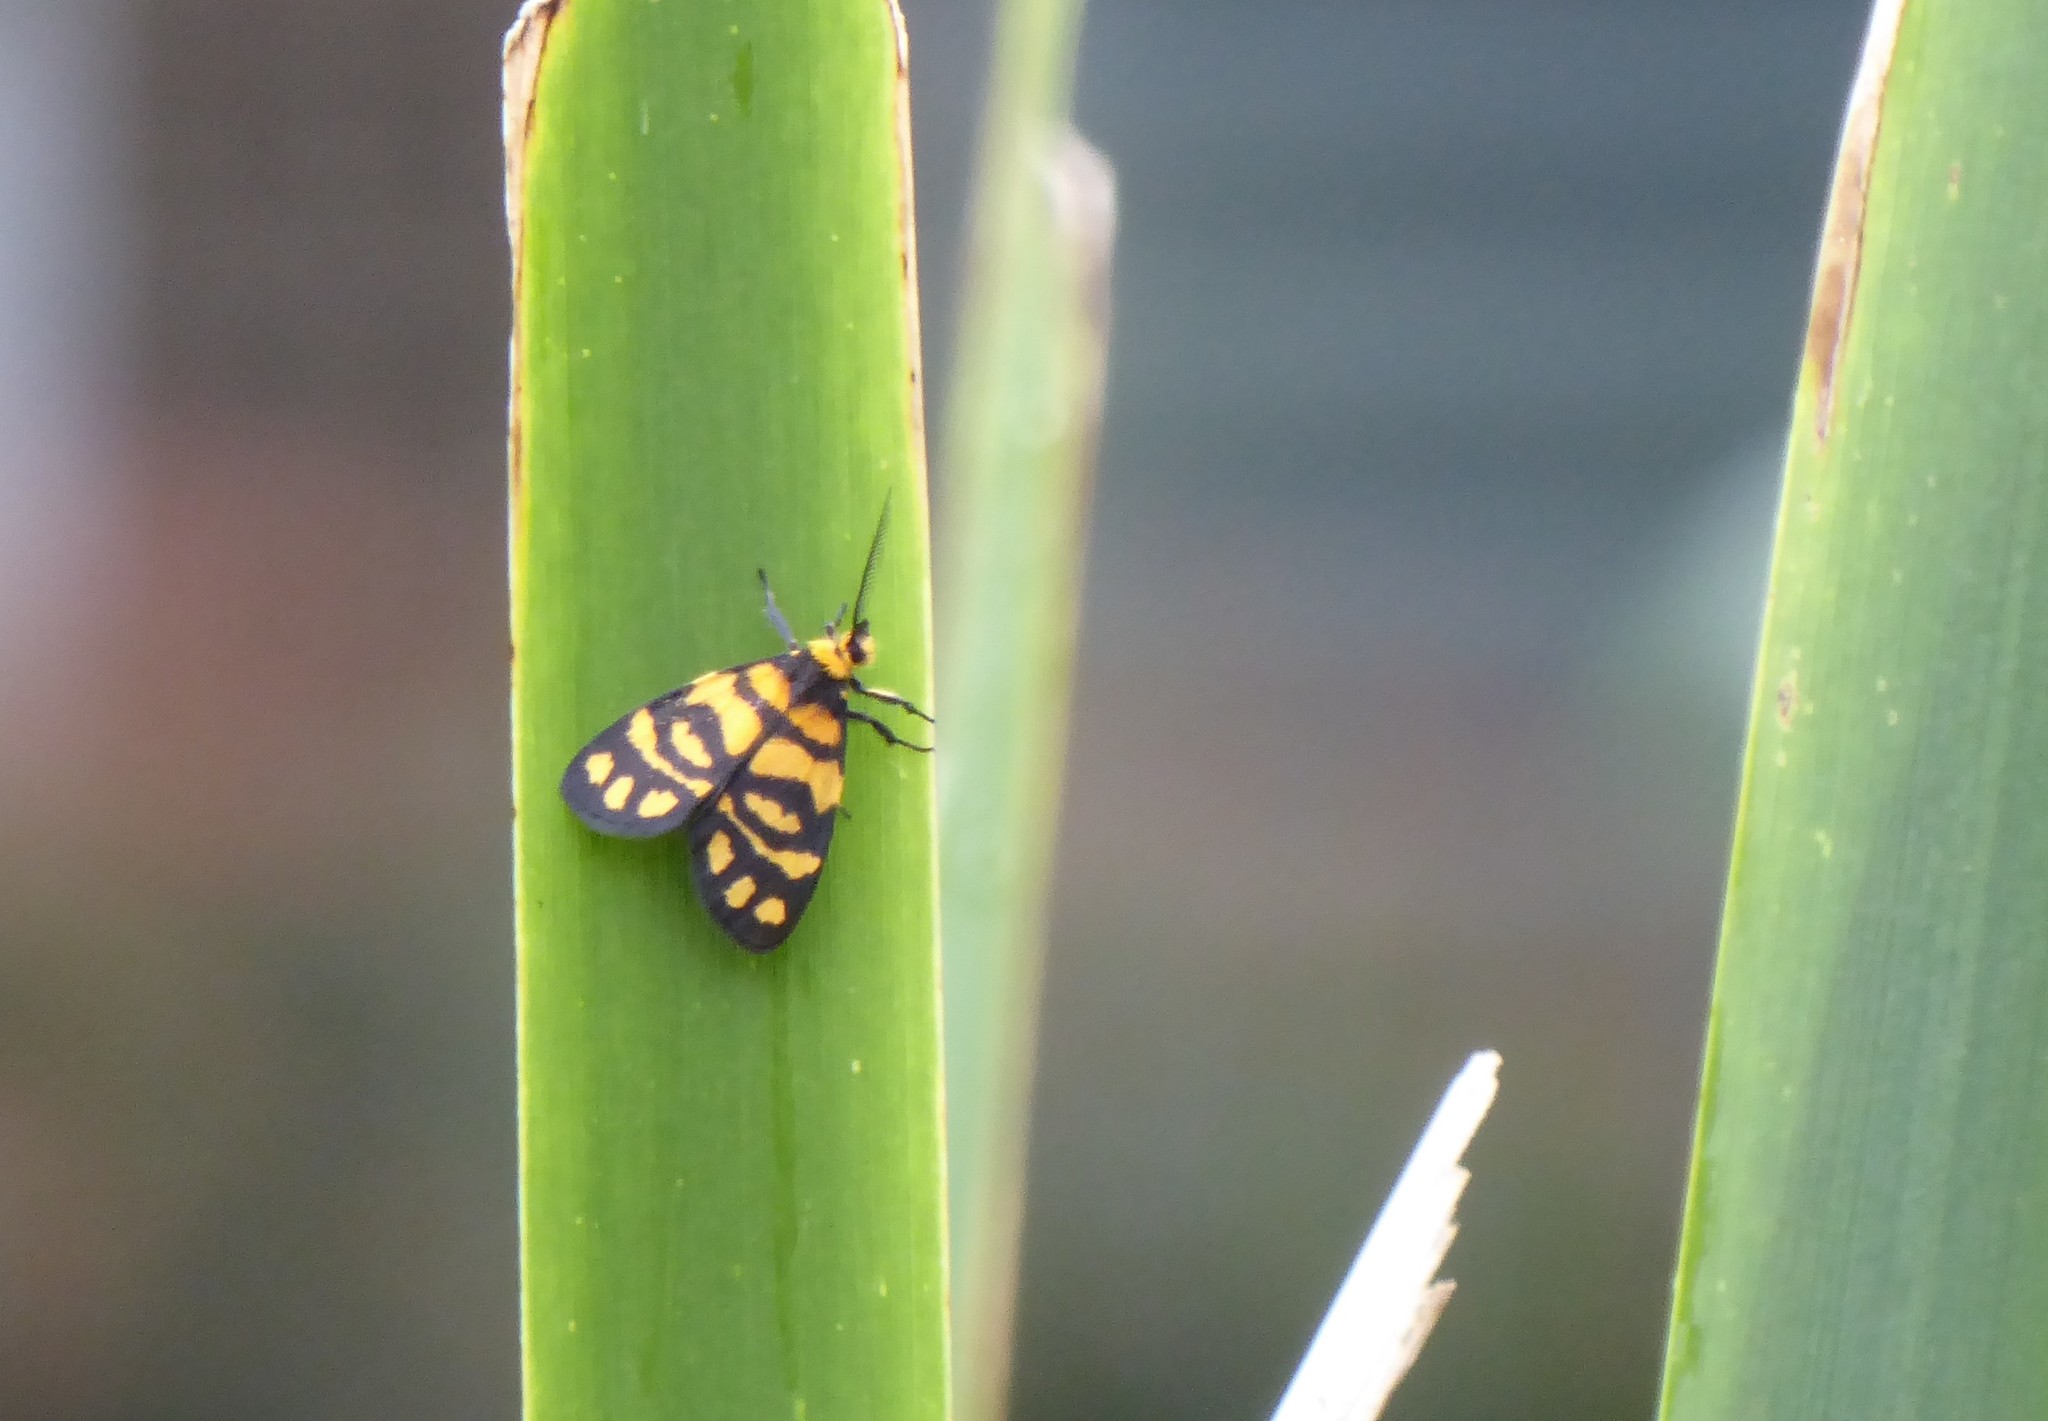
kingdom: Animalia
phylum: Arthropoda
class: Insecta
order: Lepidoptera
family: Erebidae
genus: Asura
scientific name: Asura lydia
